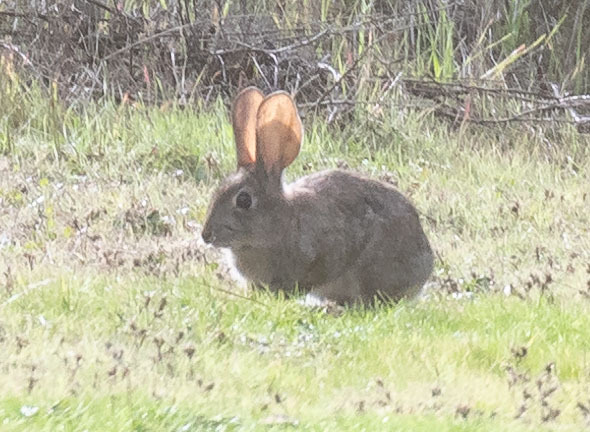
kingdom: Animalia
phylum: Chordata
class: Mammalia
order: Lagomorpha
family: Leporidae
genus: Sylvilagus
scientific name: Sylvilagus audubonii
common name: Desert cottontail
